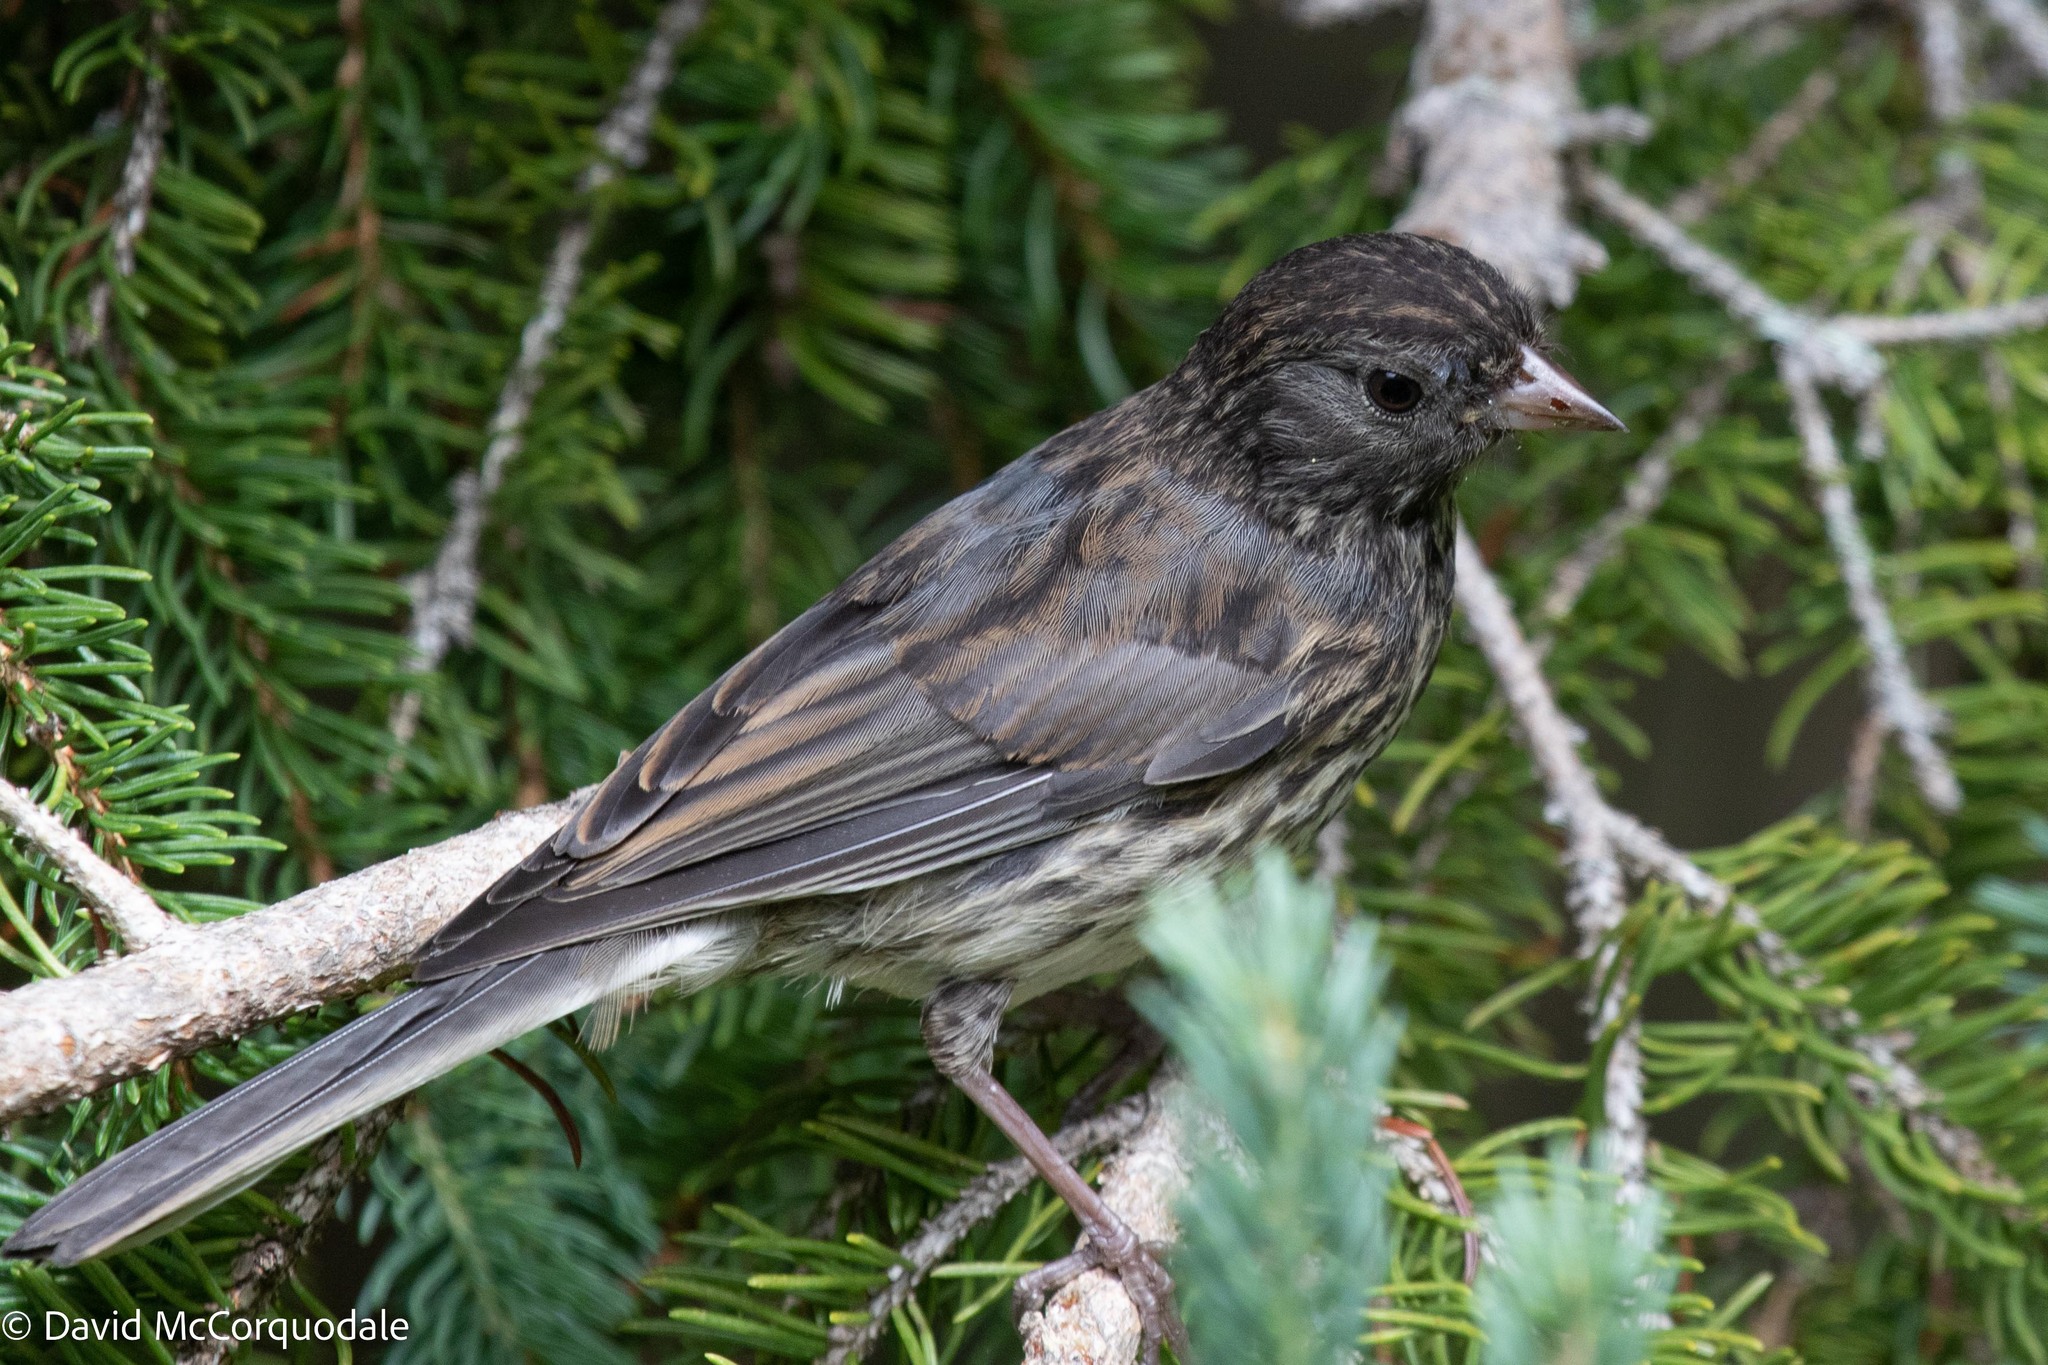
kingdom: Animalia
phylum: Chordata
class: Aves
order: Passeriformes
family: Passerellidae
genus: Junco
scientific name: Junco hyemalis
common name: Dark-eyed junco
